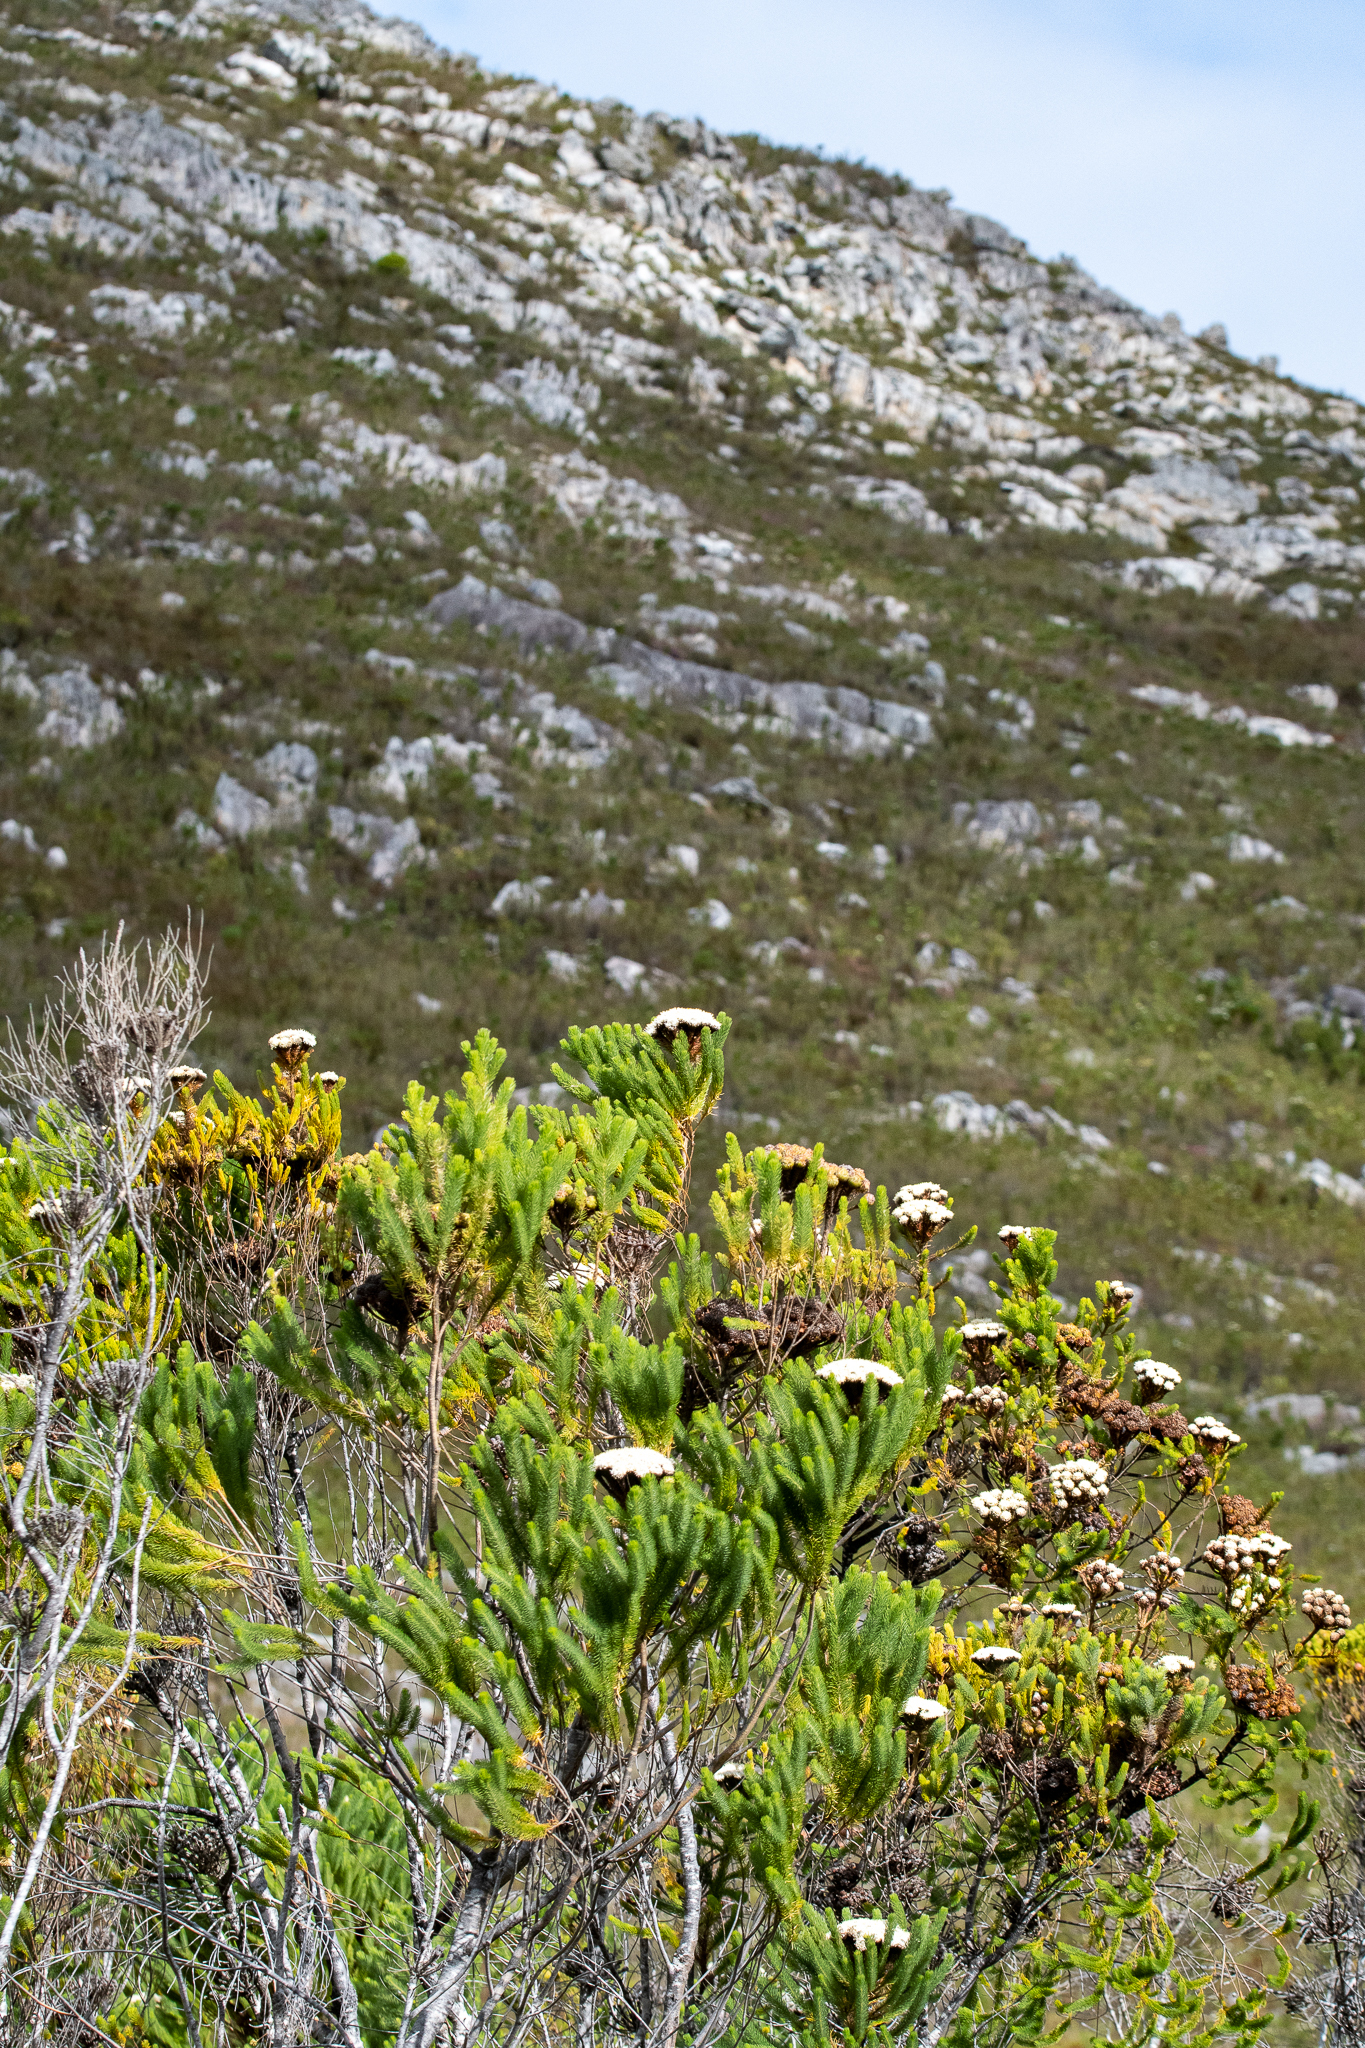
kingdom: Plantae
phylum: Tracheophyta
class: Magnoliopsida
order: Bruniales
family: Bruniaceae
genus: Berzelia
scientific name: Berzelia albiflora
